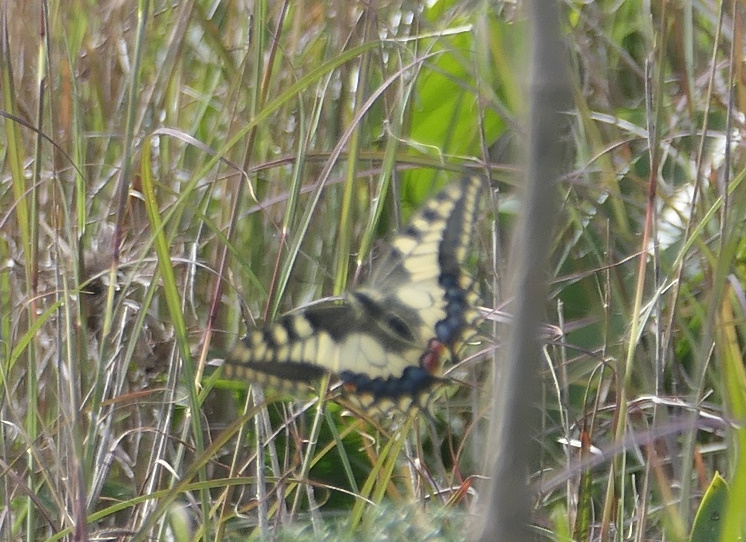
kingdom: Animalia
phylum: Arthropoda
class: Insecta
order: Lepidoptera
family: Papilionidae
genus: Papilio
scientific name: Papilio machaon
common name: Swallowtail
